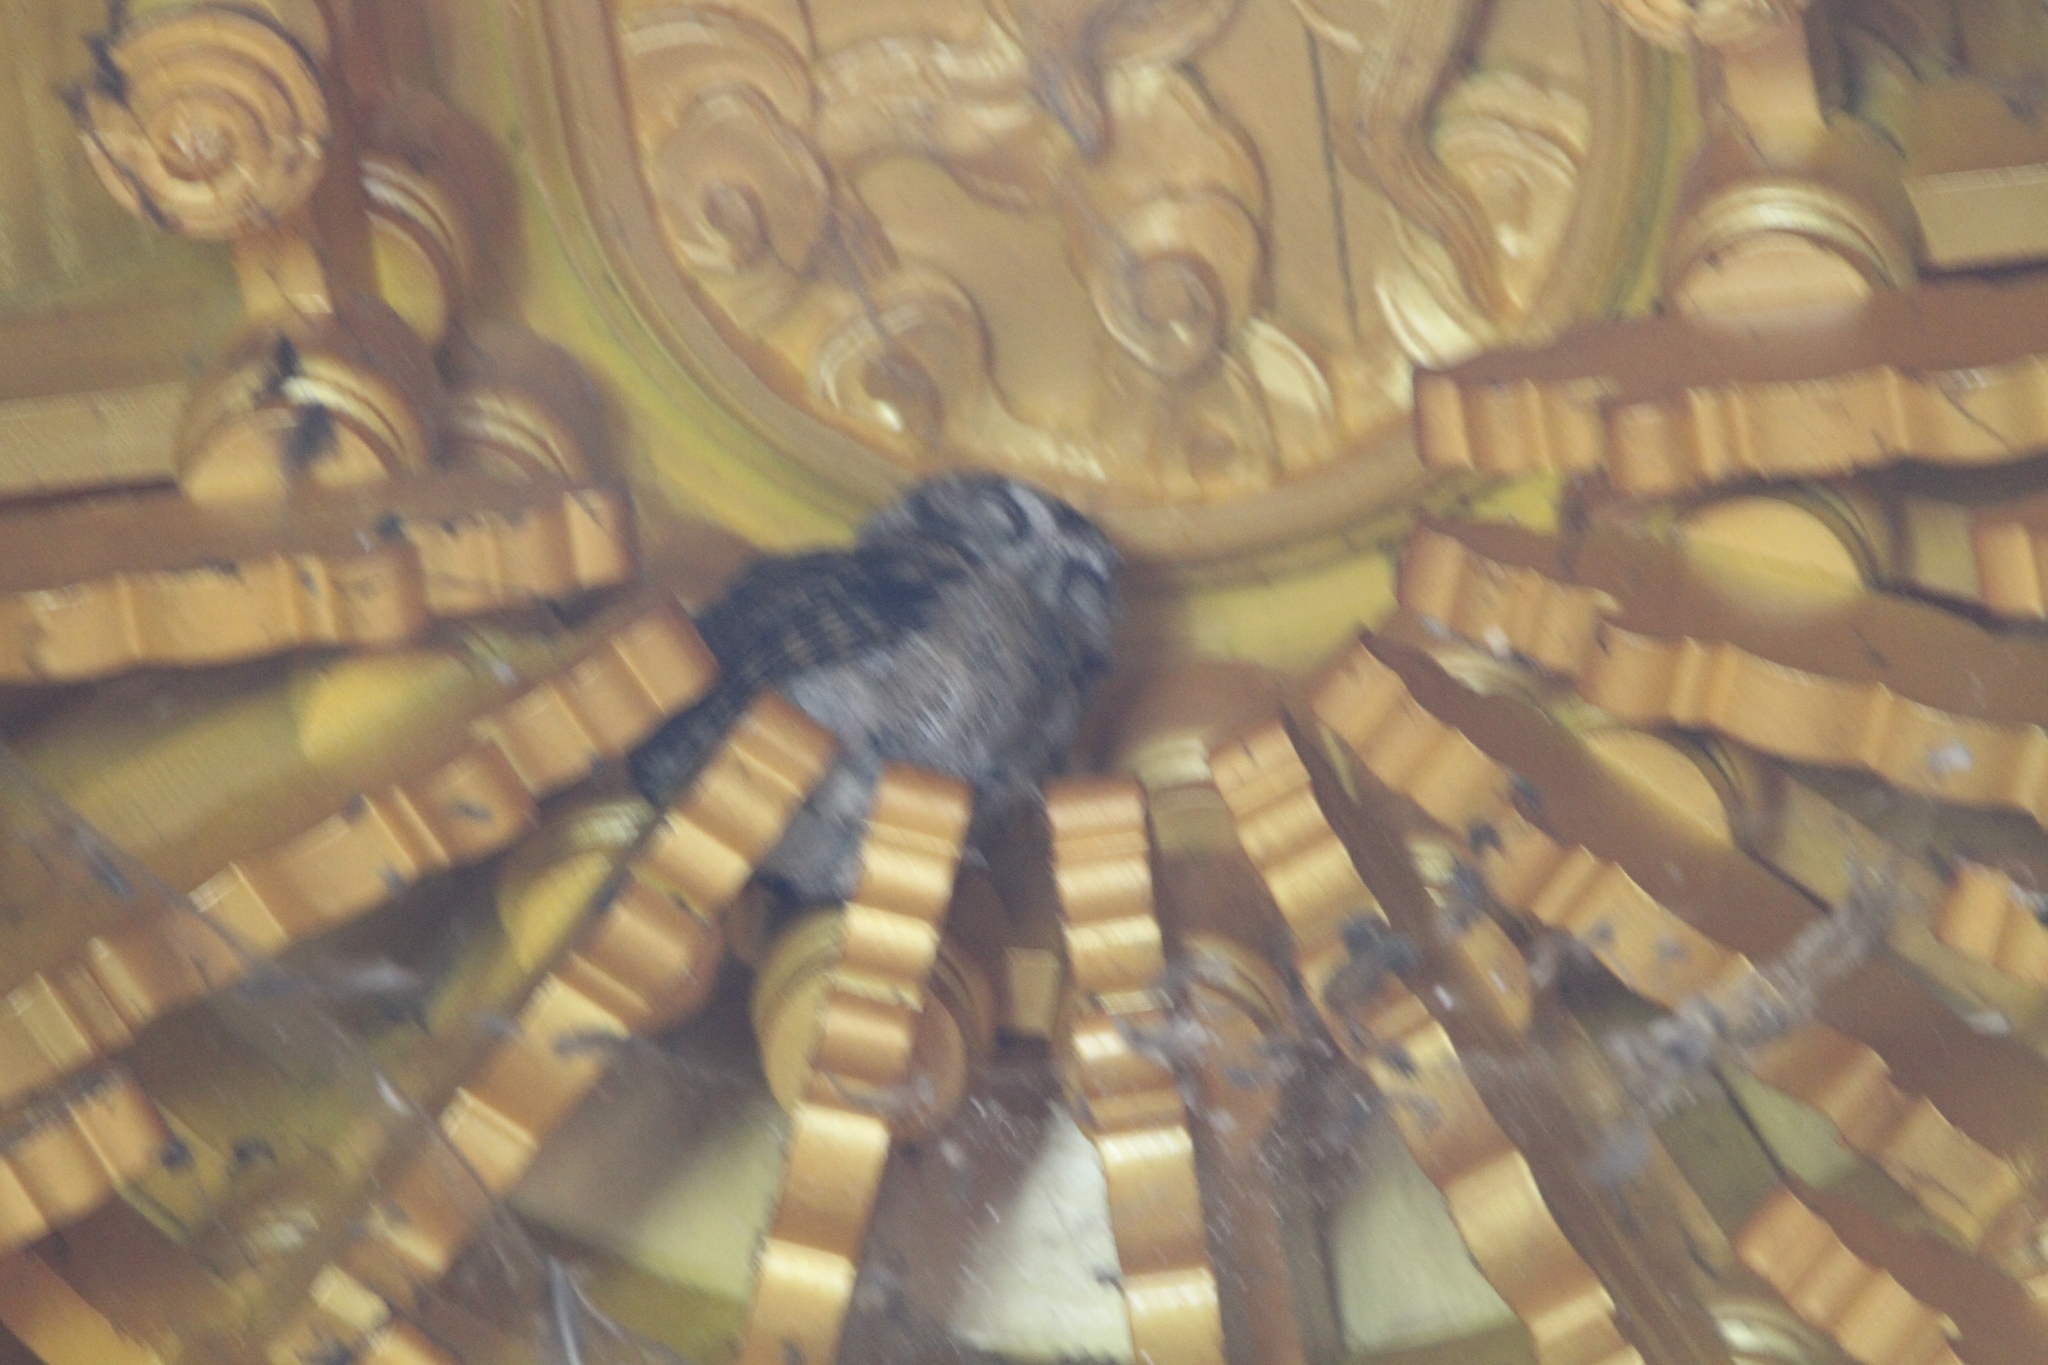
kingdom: Animalia
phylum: Chordata
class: Aves
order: Strigiformes
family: Strigidae
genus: Otus
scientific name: Otus lettia
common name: Collared scops owl
